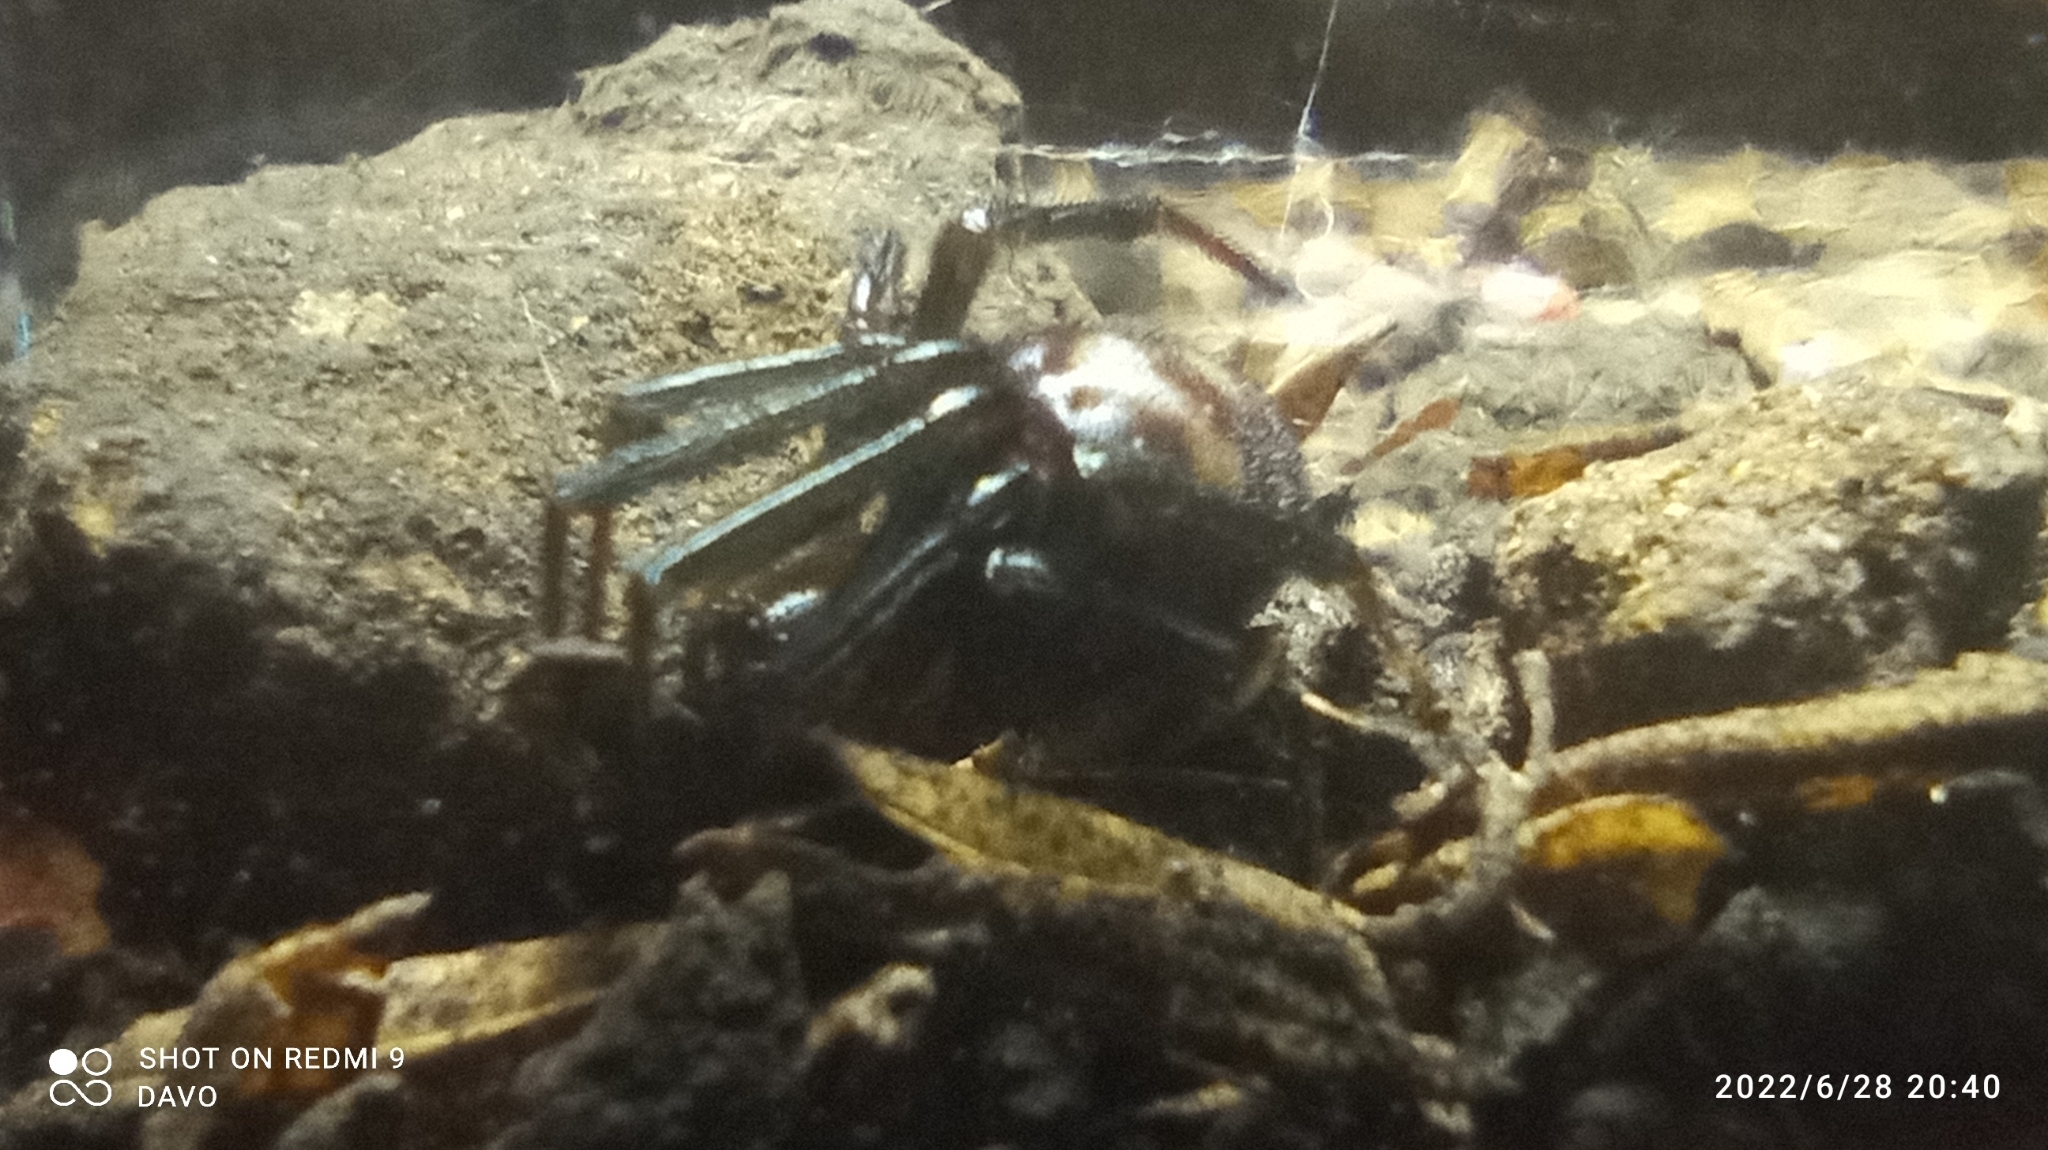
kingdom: Animalia
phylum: Arthropoda
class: Arachnida
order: Araneae
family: Theridiidae
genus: Steatoda
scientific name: Steatoda grossa
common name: False black widow
